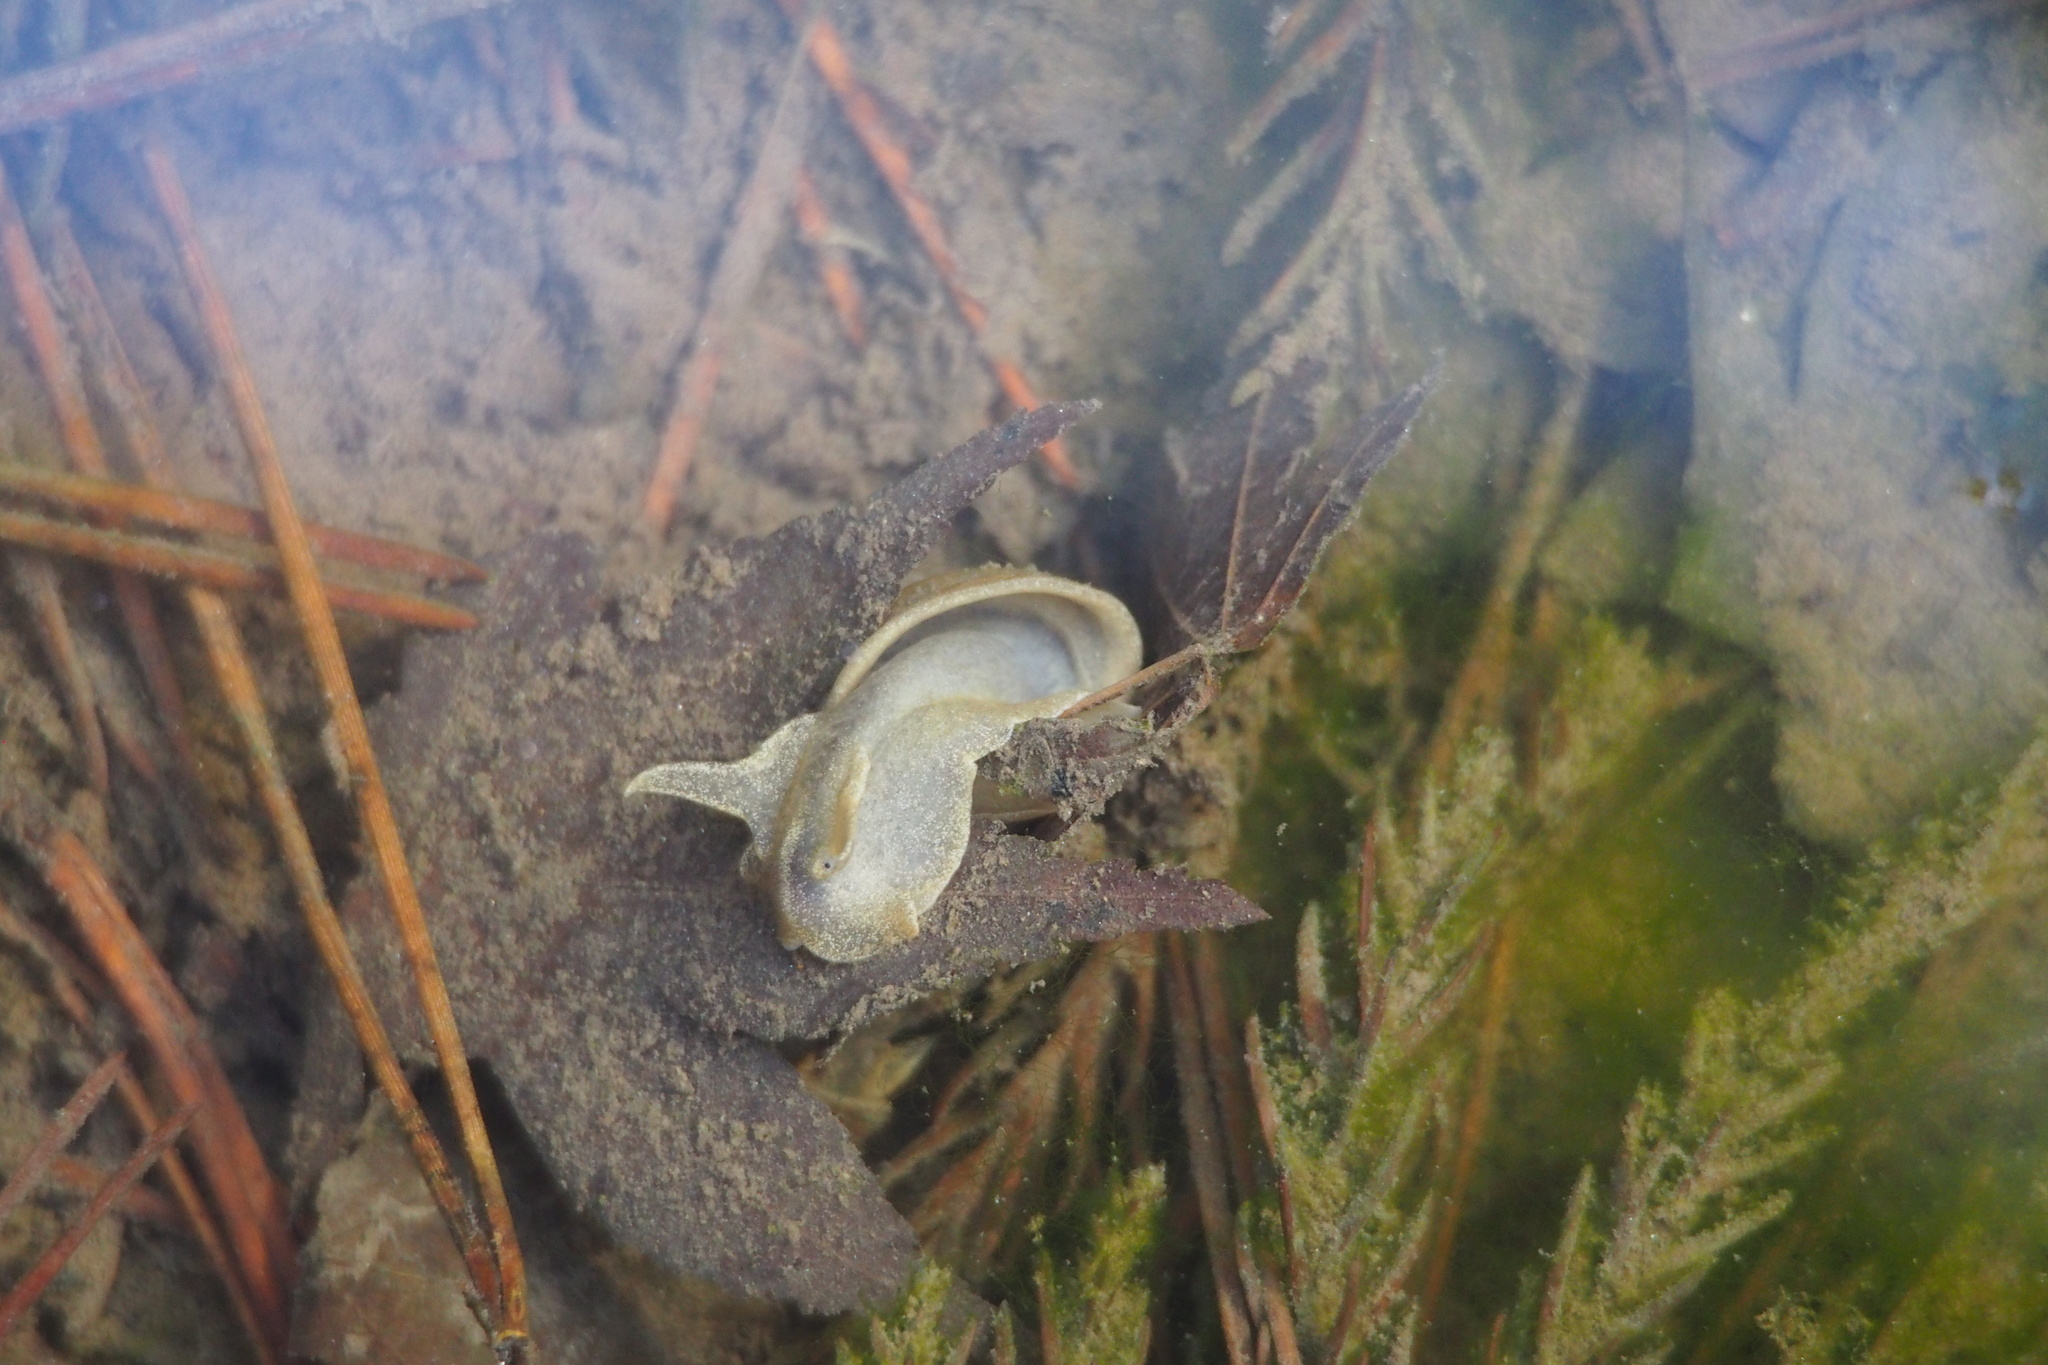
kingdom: Animalia
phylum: Mollusca
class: Gastropoda
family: Lymnaeidae
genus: Radix
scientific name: Radix japonica
